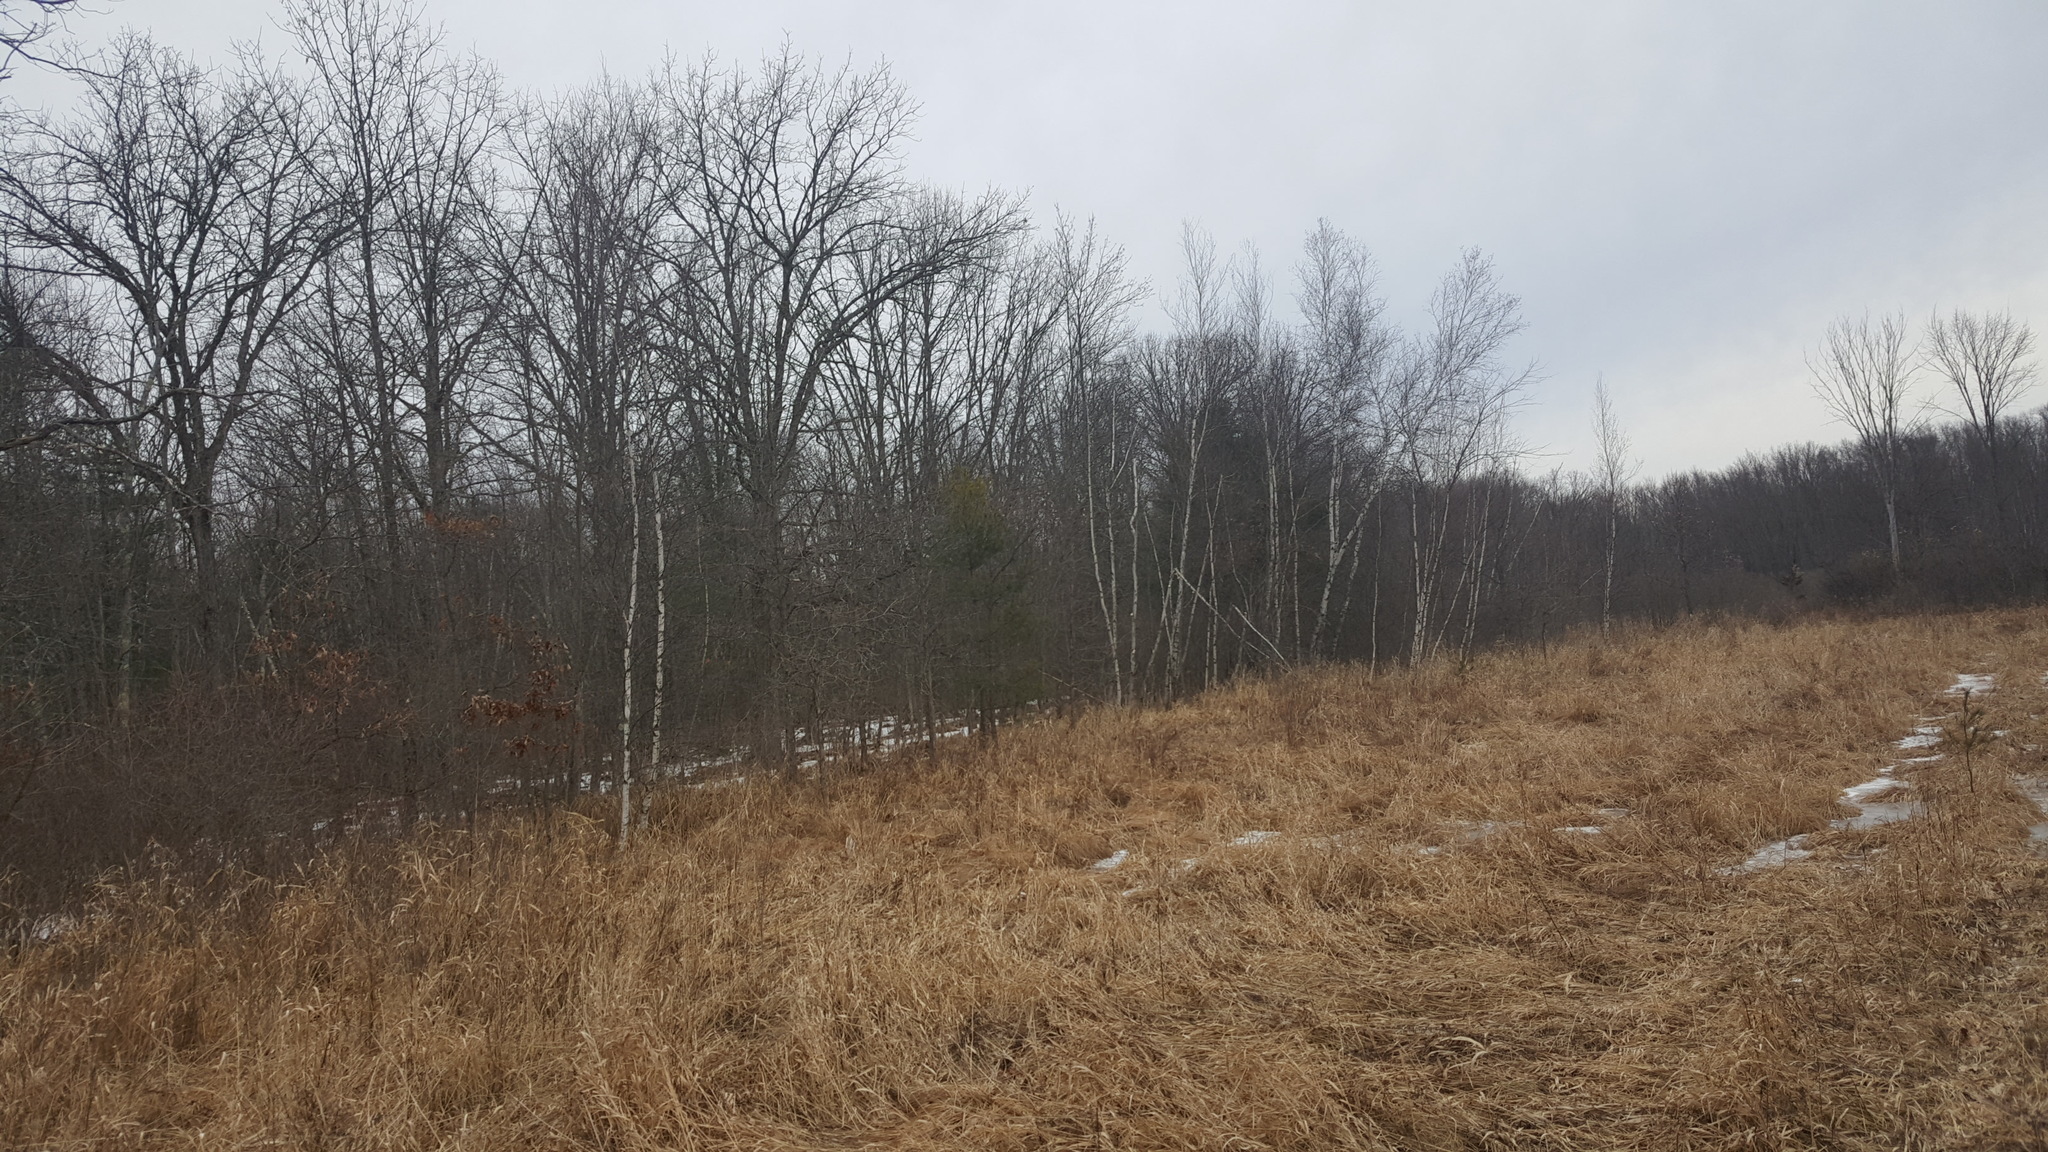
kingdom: Plantae
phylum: Tracheophyta
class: Magnoliopsida
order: Fagales
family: Betulaceae
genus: Betula
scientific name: Betula populifolia
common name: Fire birch
